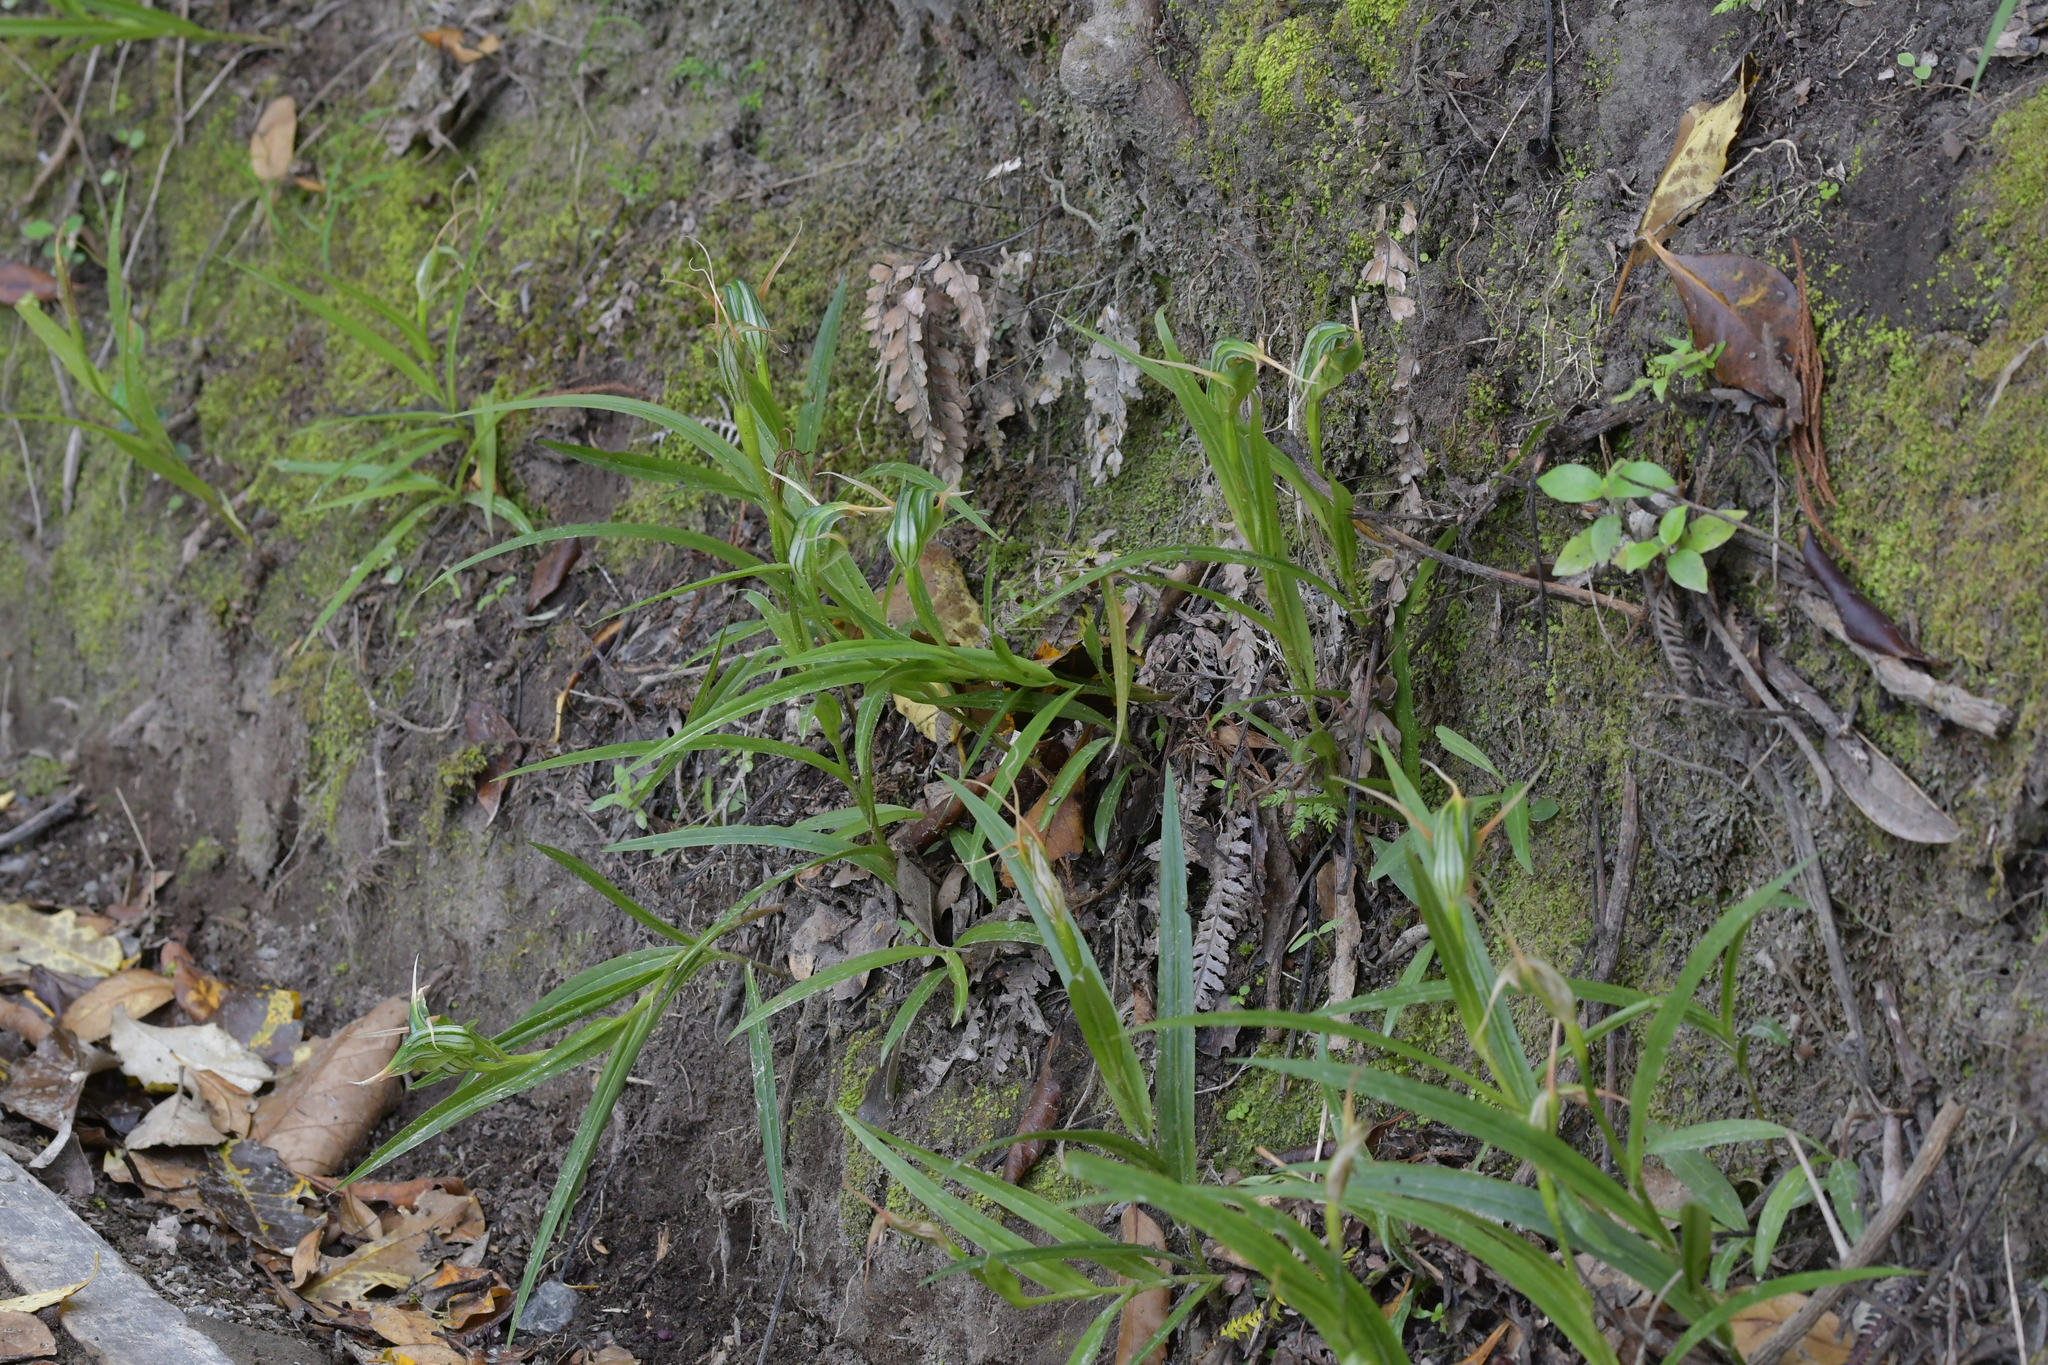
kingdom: Plantae
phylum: Tracheophyta
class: Liliopsida
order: Asparagales
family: Orchidaceae
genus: Pterostylis
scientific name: Pterostylis banksii
